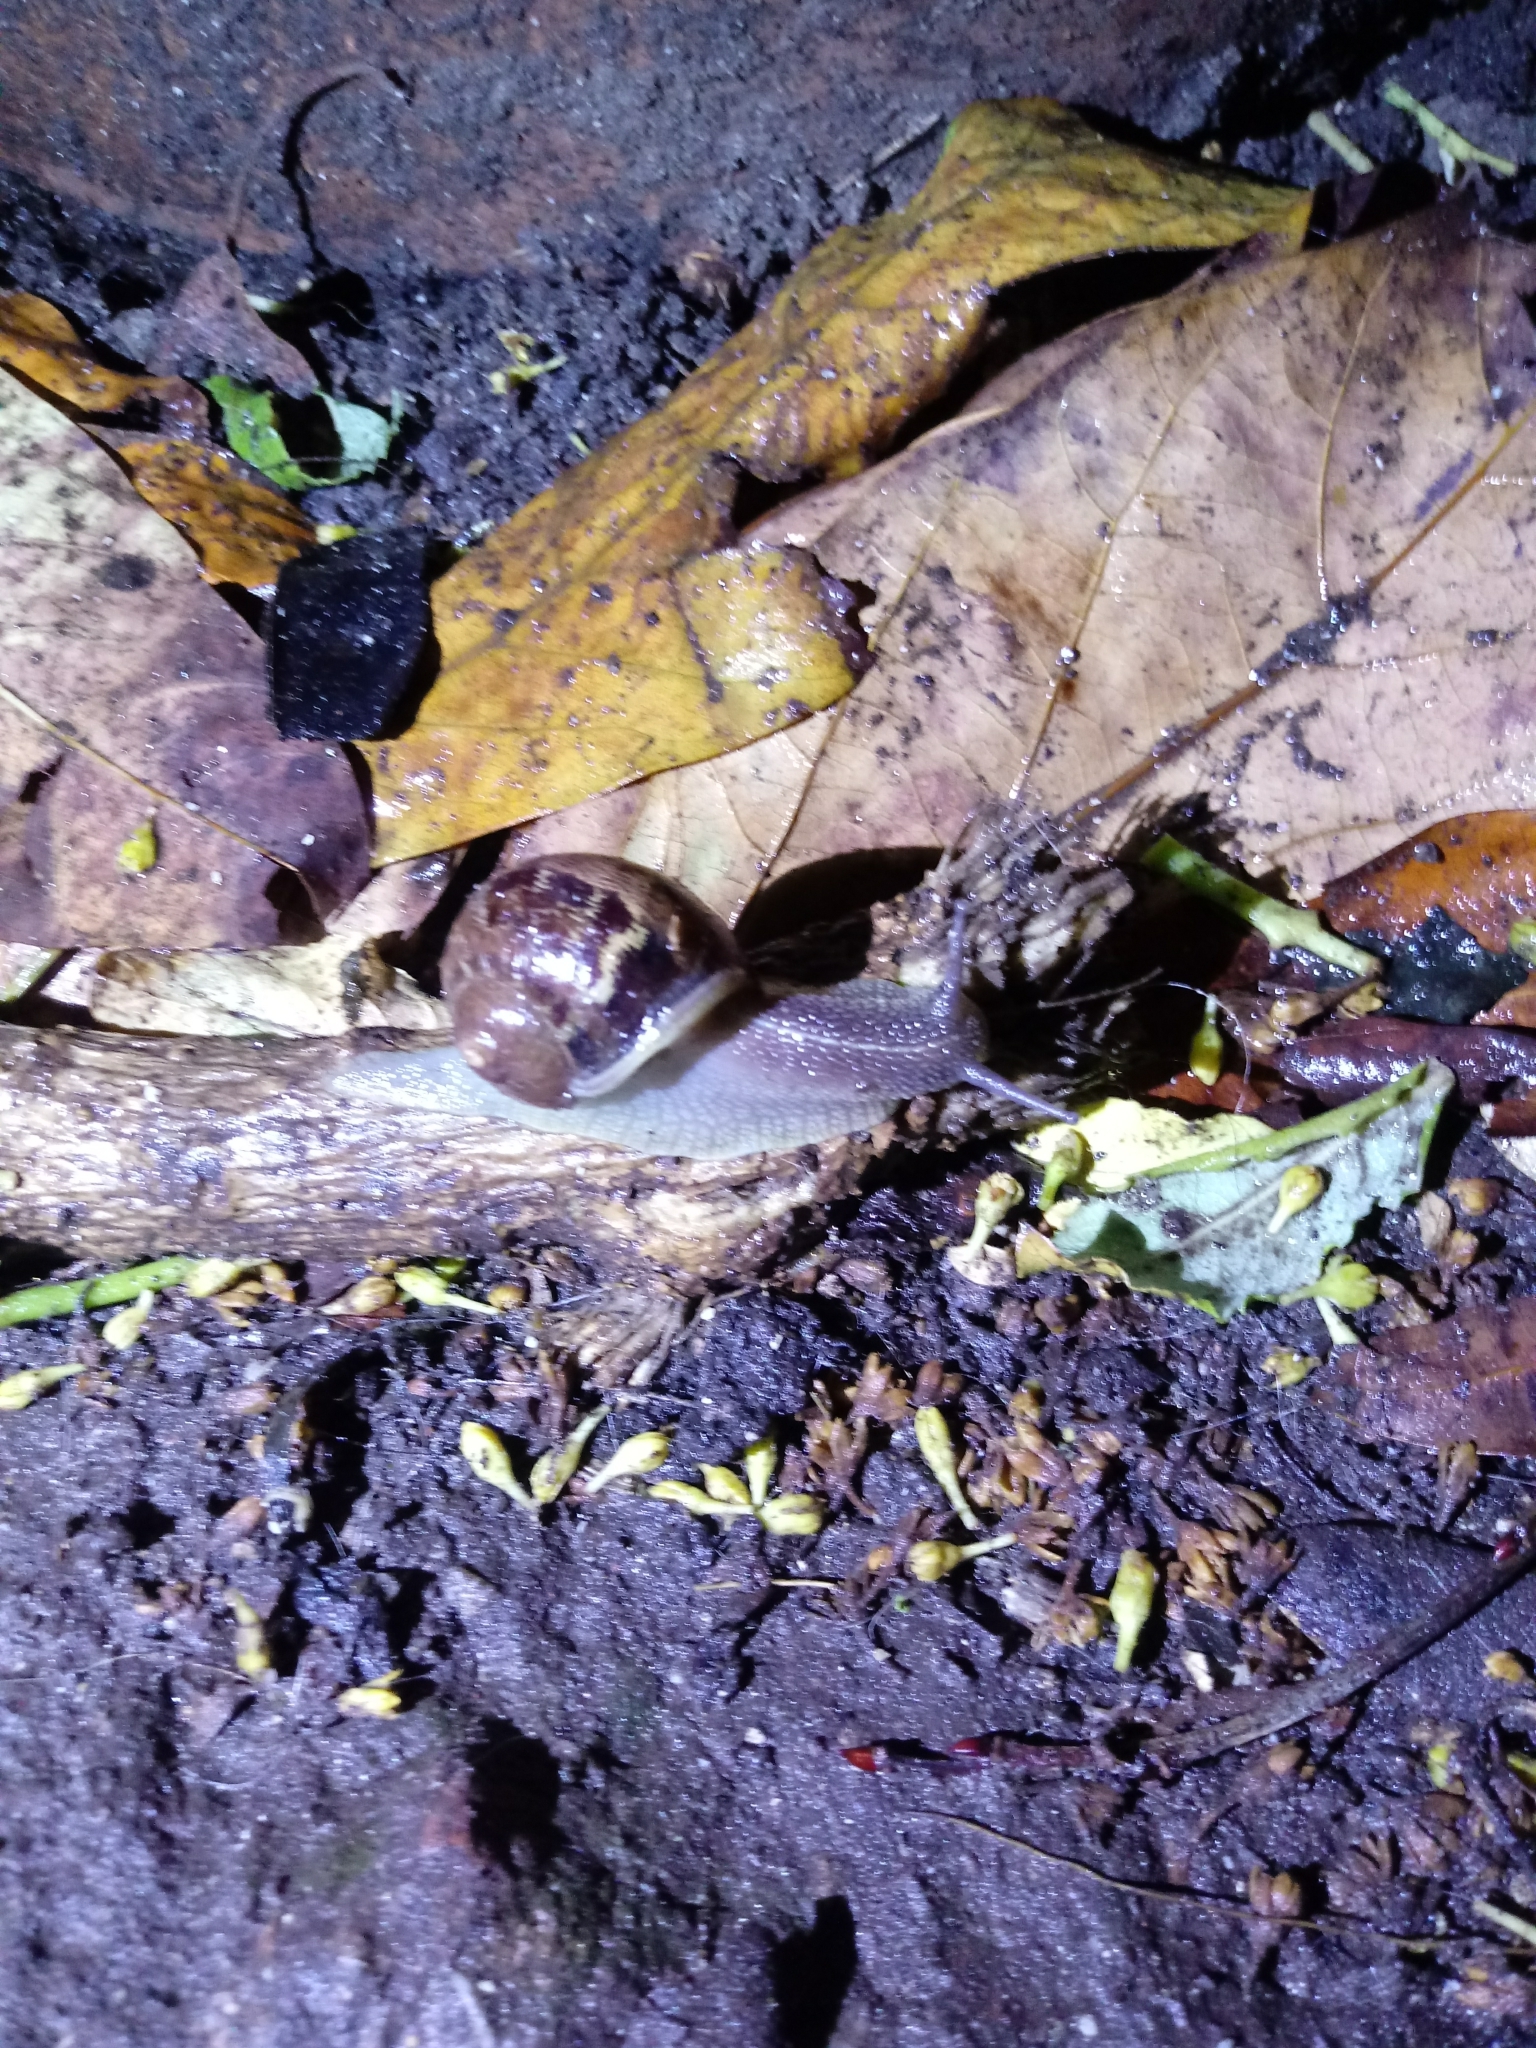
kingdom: Animalia
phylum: Mollusca
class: Gastropoda
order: Stylommatophora
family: Helicidae
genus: Cornu
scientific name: Cornu aspersum
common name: Brown garden snail
